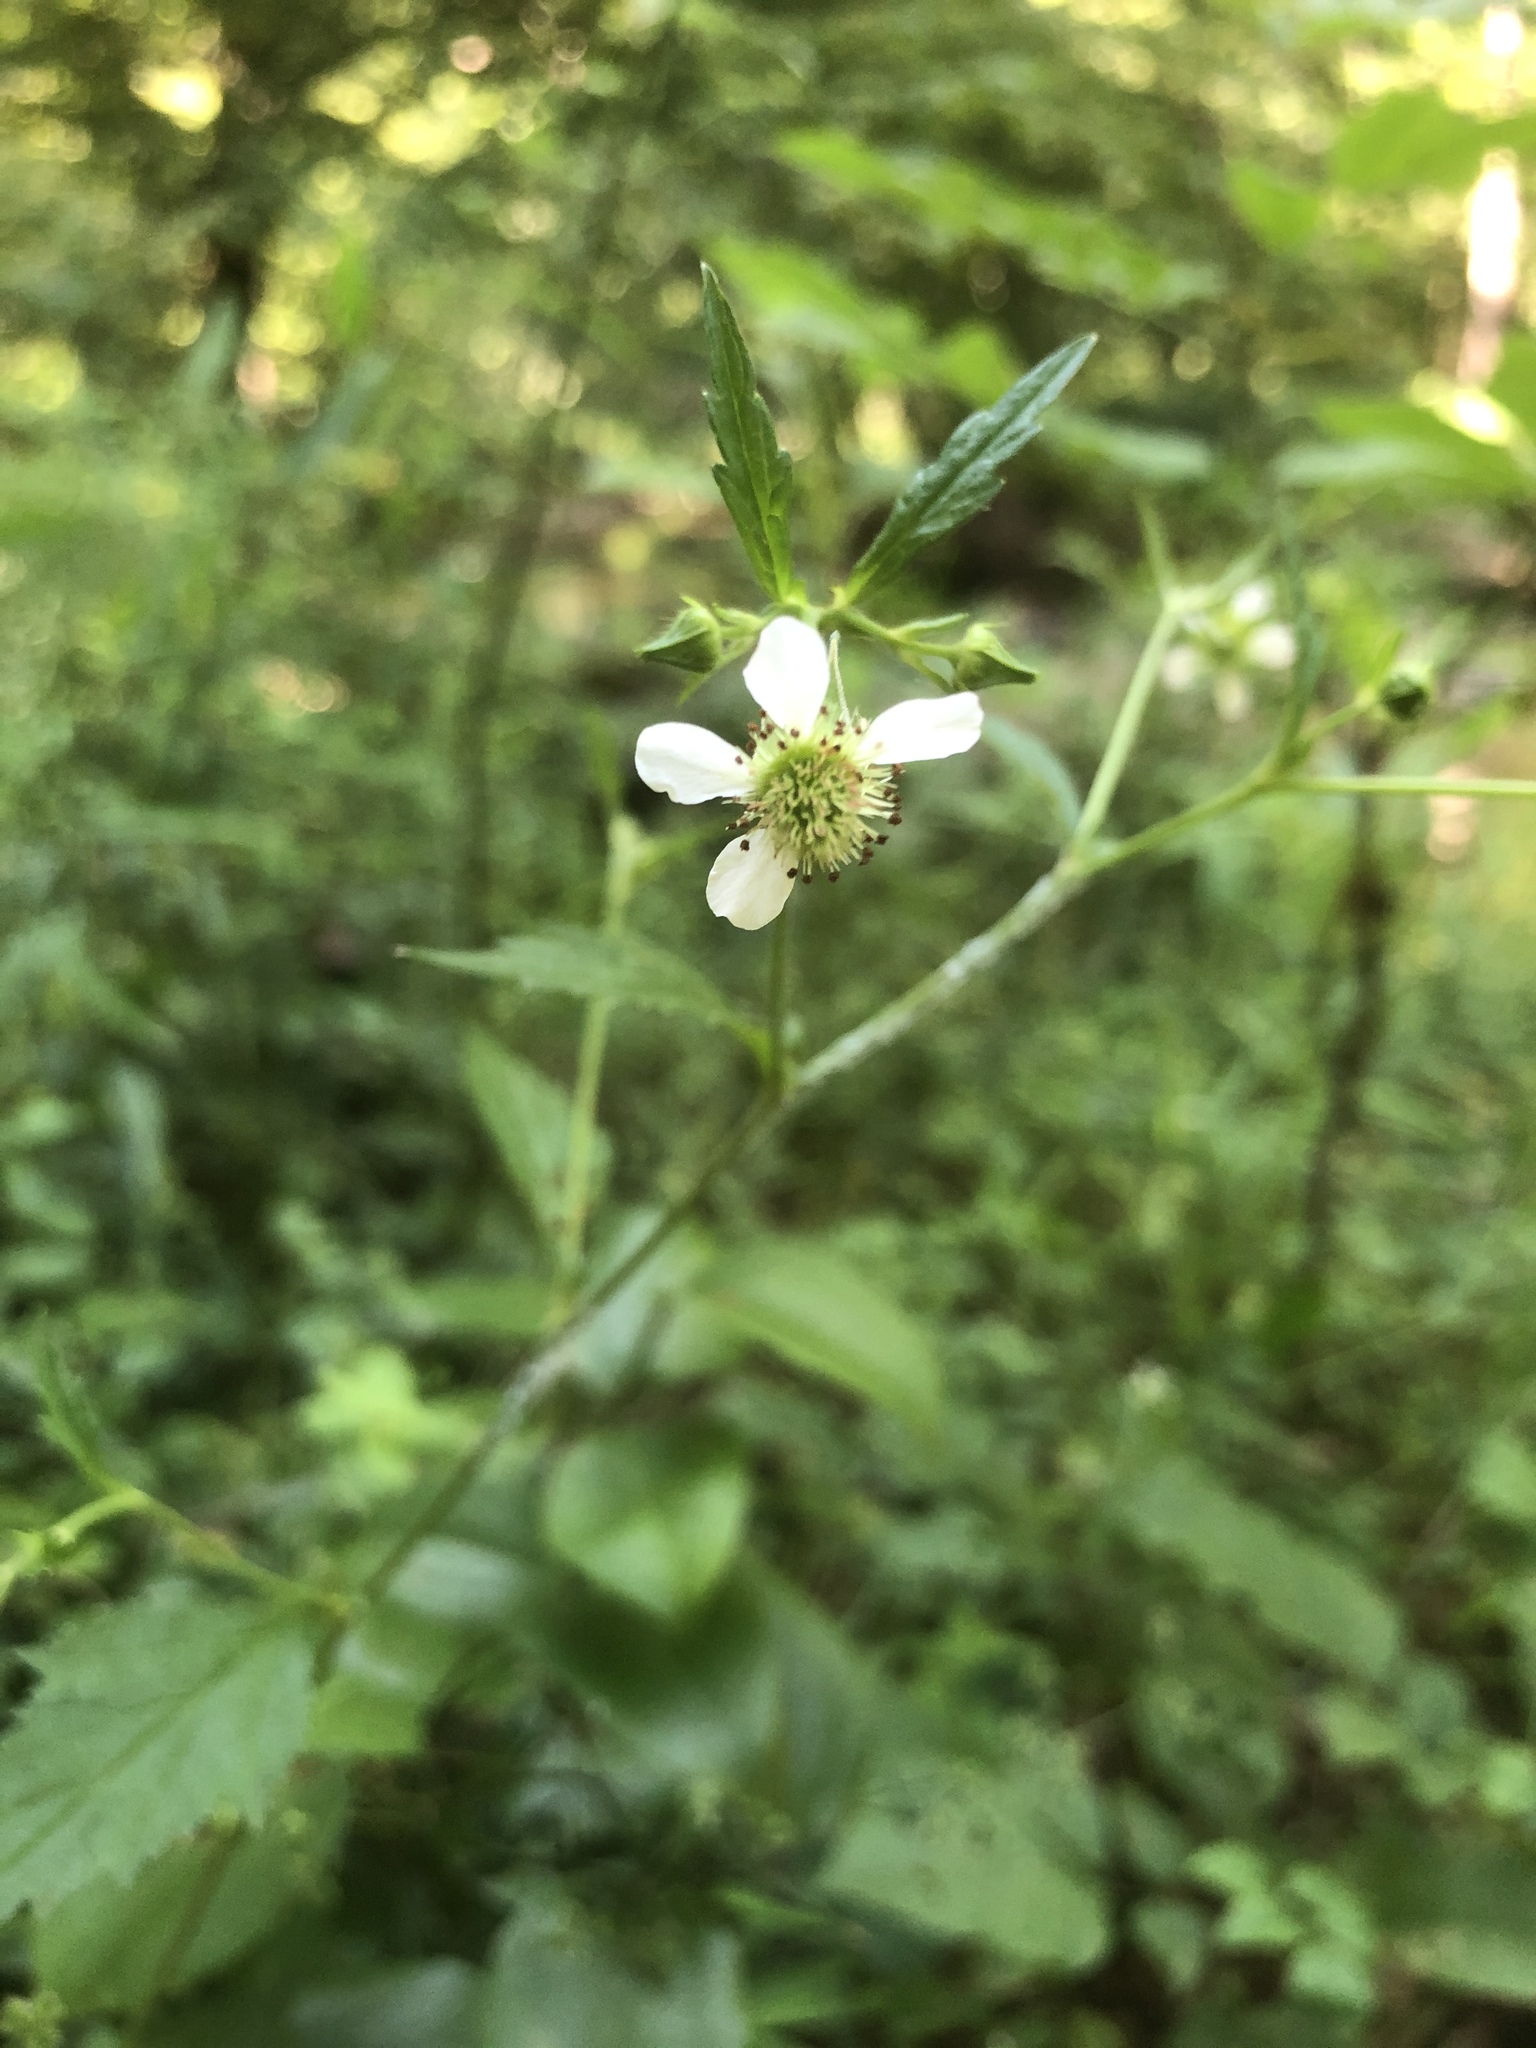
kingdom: Plantae
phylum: Tracheophyta
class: Magnoliopsida
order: Rosales
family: Rosaceae
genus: Geum
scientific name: Geum canadense
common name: White avens
